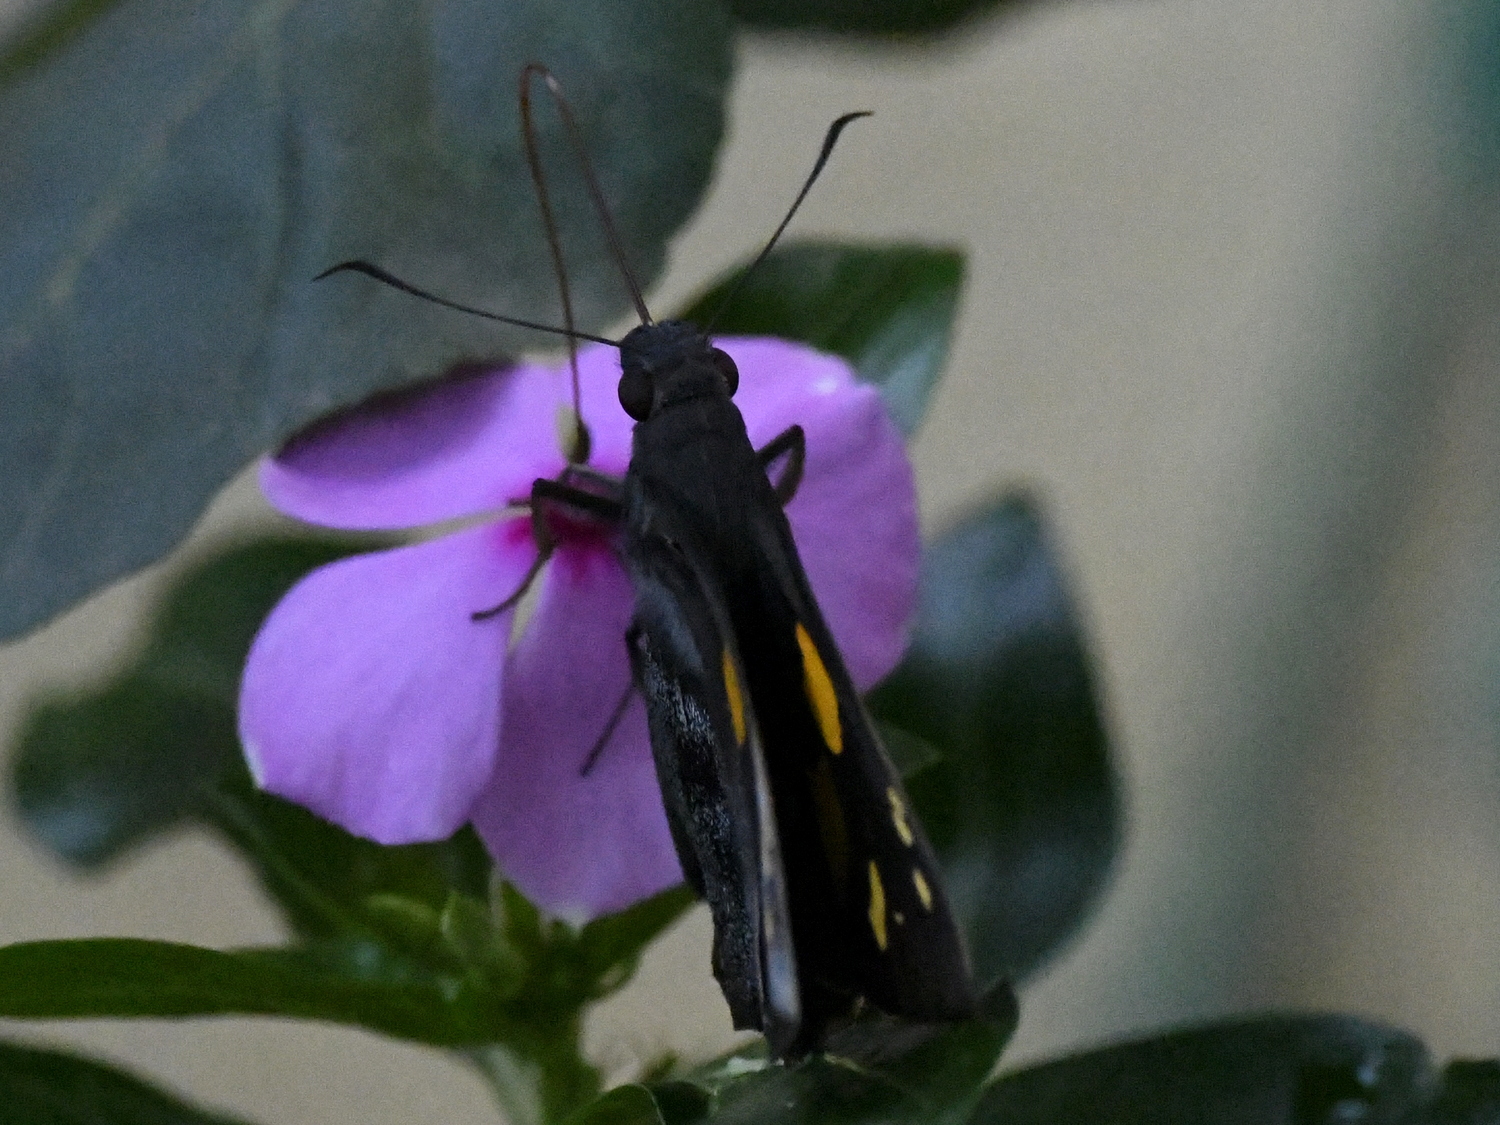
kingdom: Animalia
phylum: Arthropoda
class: Insecta
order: Lepidoptera
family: Hesperiidae
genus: Gangara
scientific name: Gangara thyrsis
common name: Giant redeye
